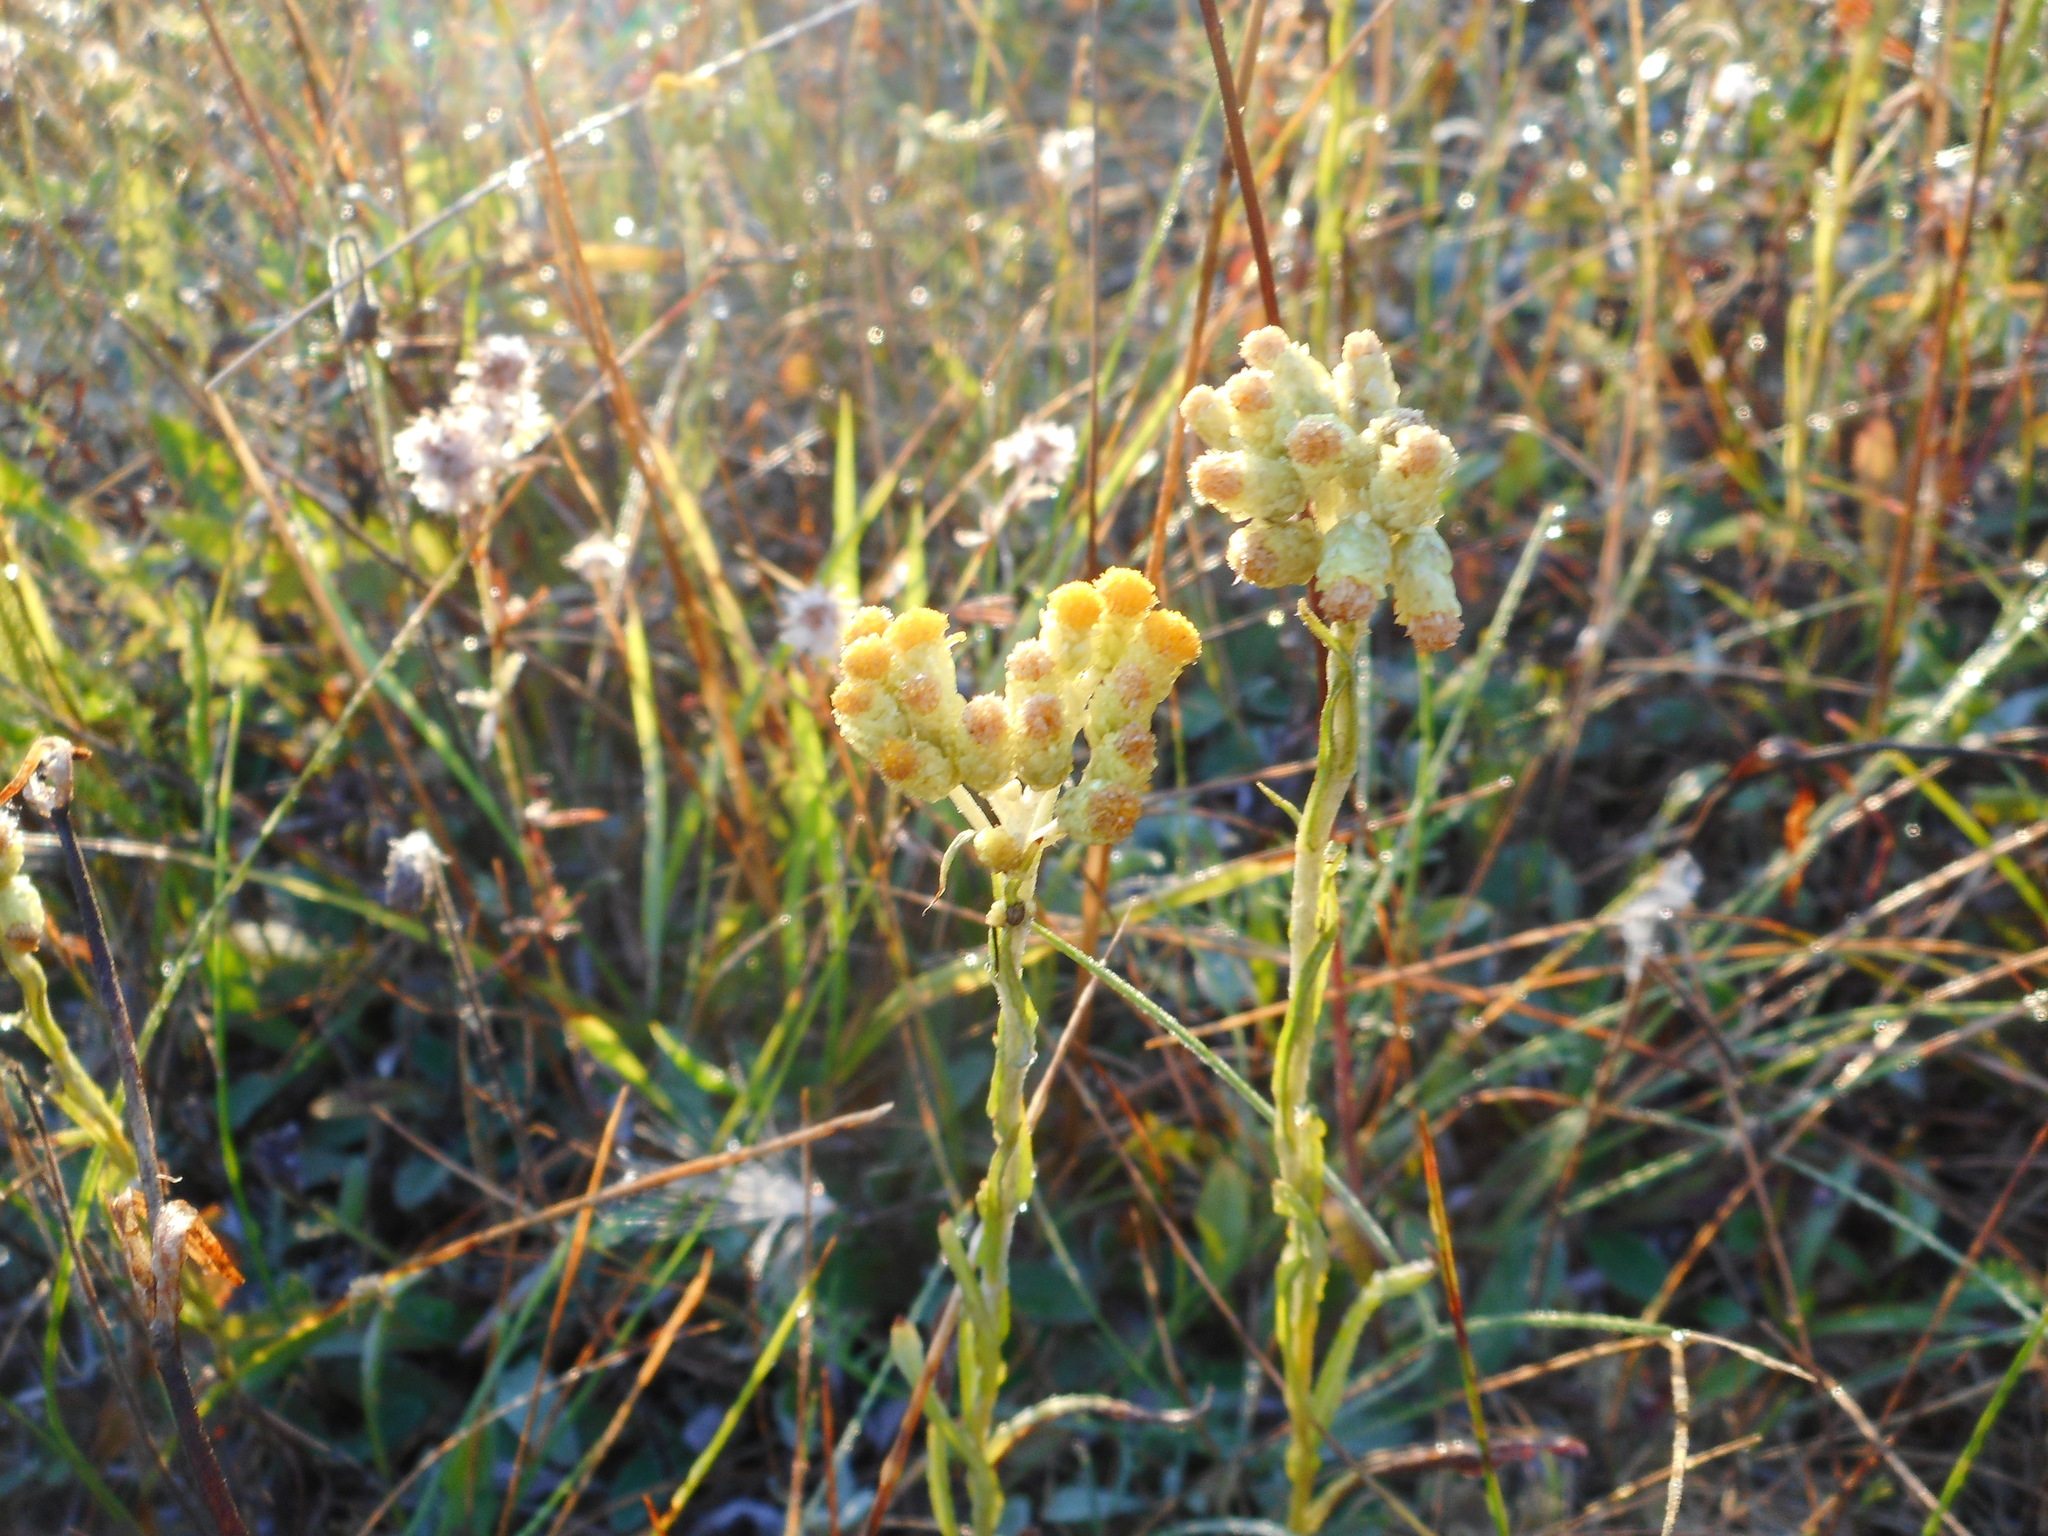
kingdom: Plantae
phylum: Tracheophyta
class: Magnoliopsida
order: Asterales
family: Asteraceae
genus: Helichrysum
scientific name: Helichrysum arenarium
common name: Strawflower
